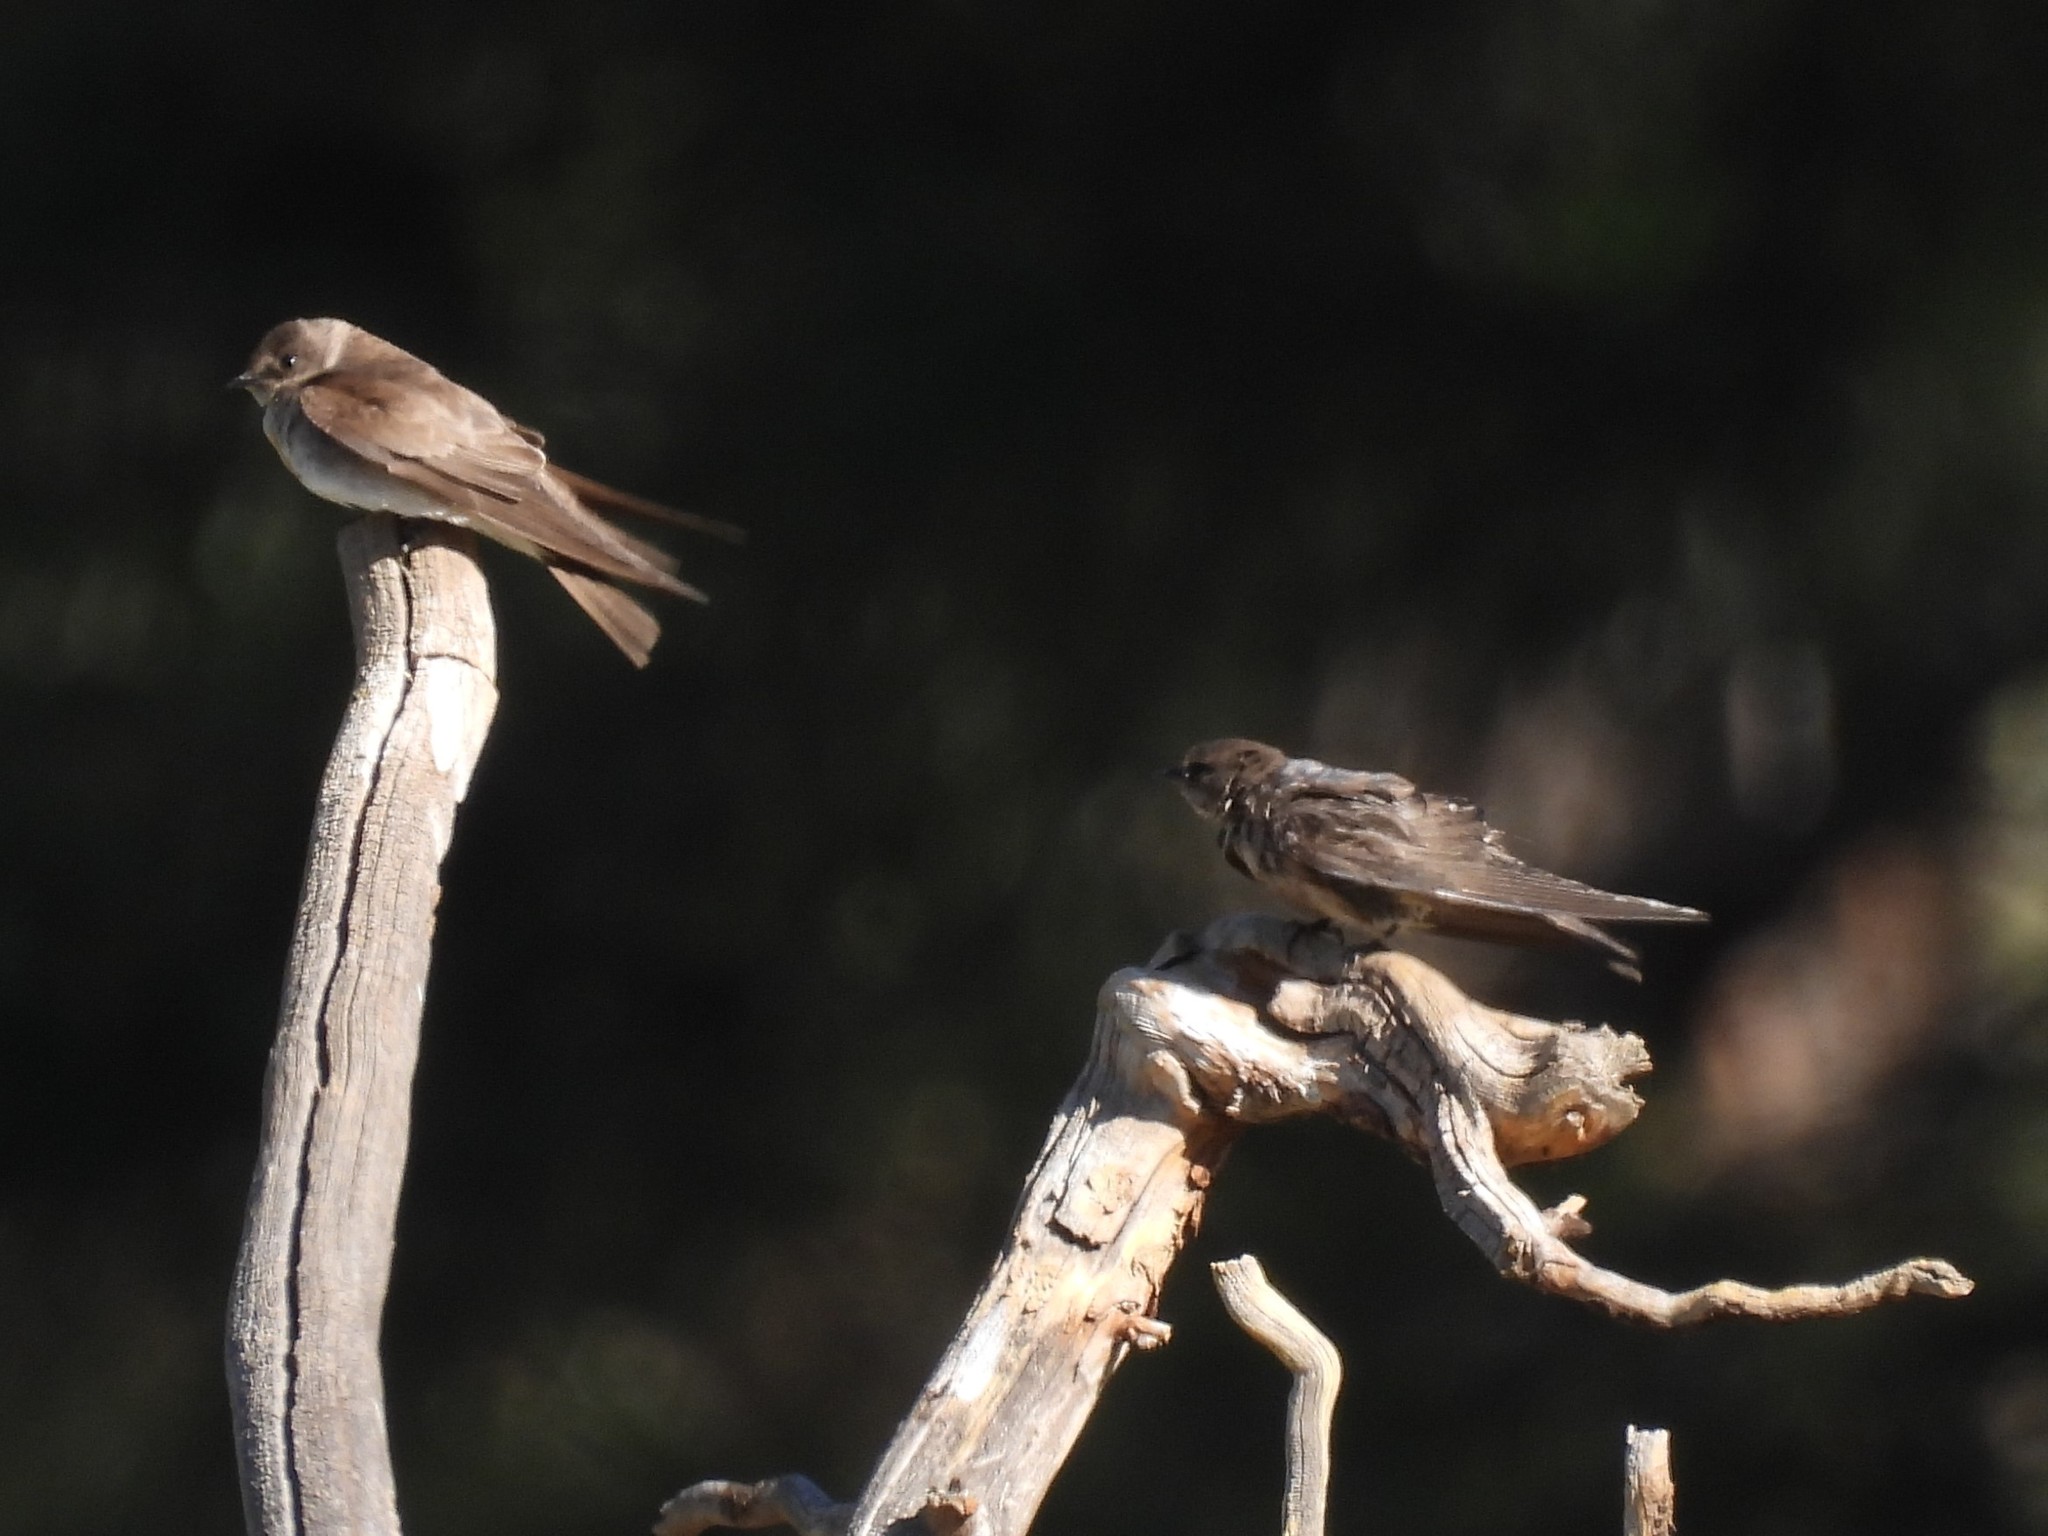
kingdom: Animalia
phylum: Chordata
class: Aves
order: Passeriformes
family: Hirundinidae
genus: Stelgidopteryx
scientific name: Stelgidopteryx serripennis
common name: Northern rough-winged swallow
